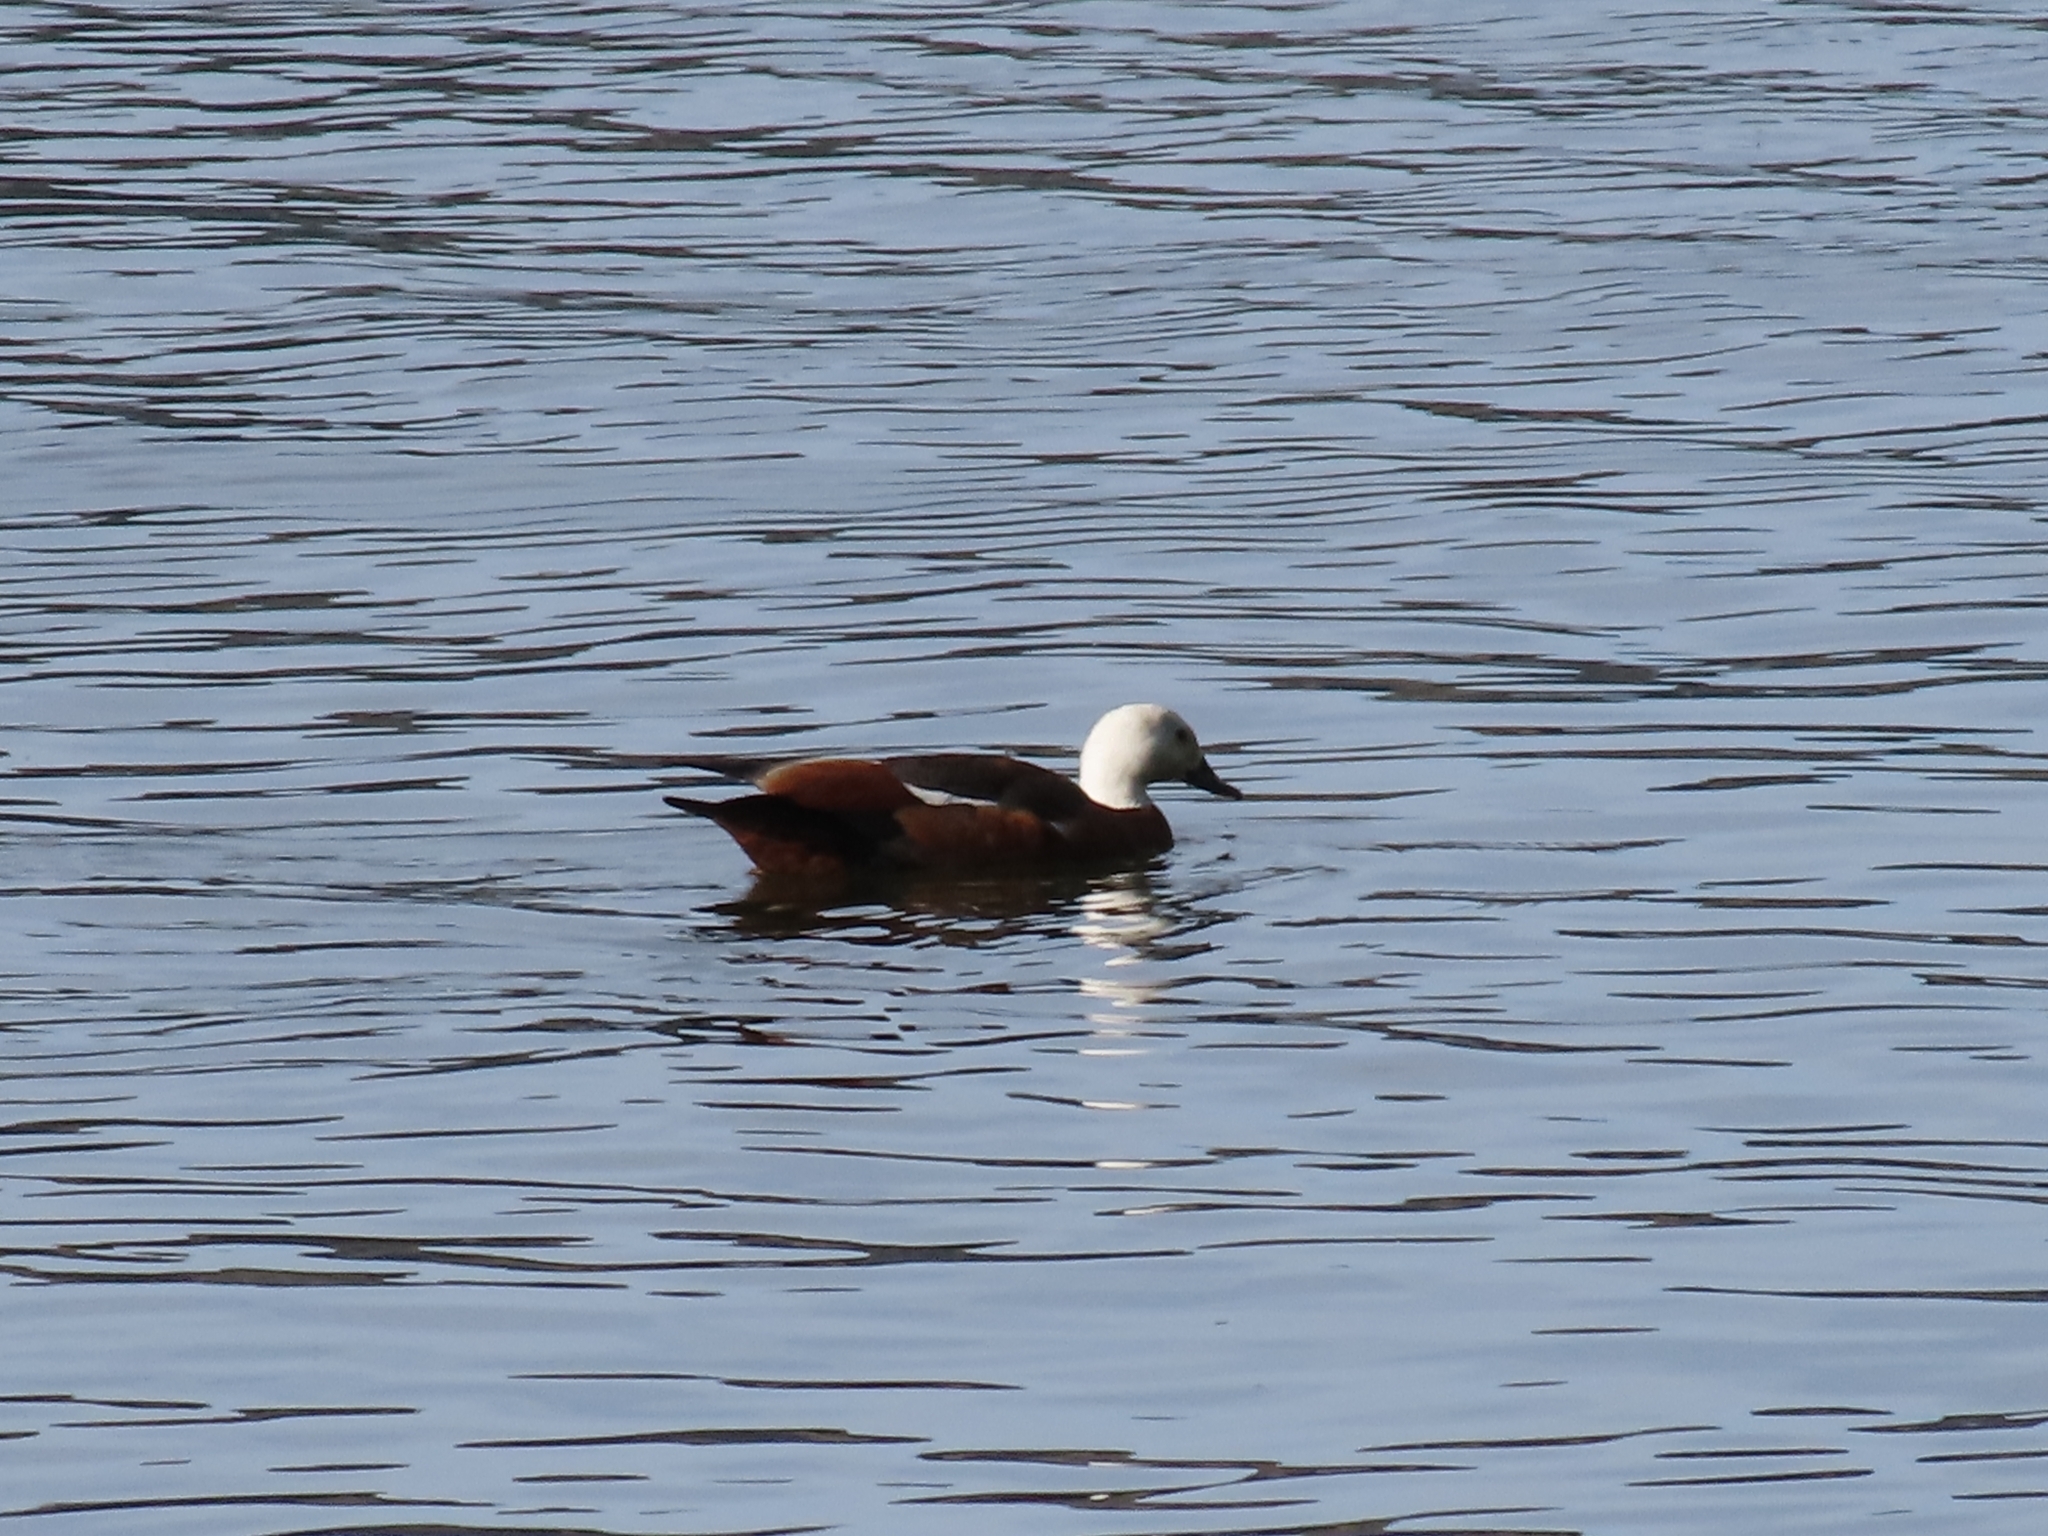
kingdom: Animalia
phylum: Chordata
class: Aves
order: Anseriformes
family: Anatidae
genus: Tadorna
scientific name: Tadorna variegata
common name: Paradise shelduck
